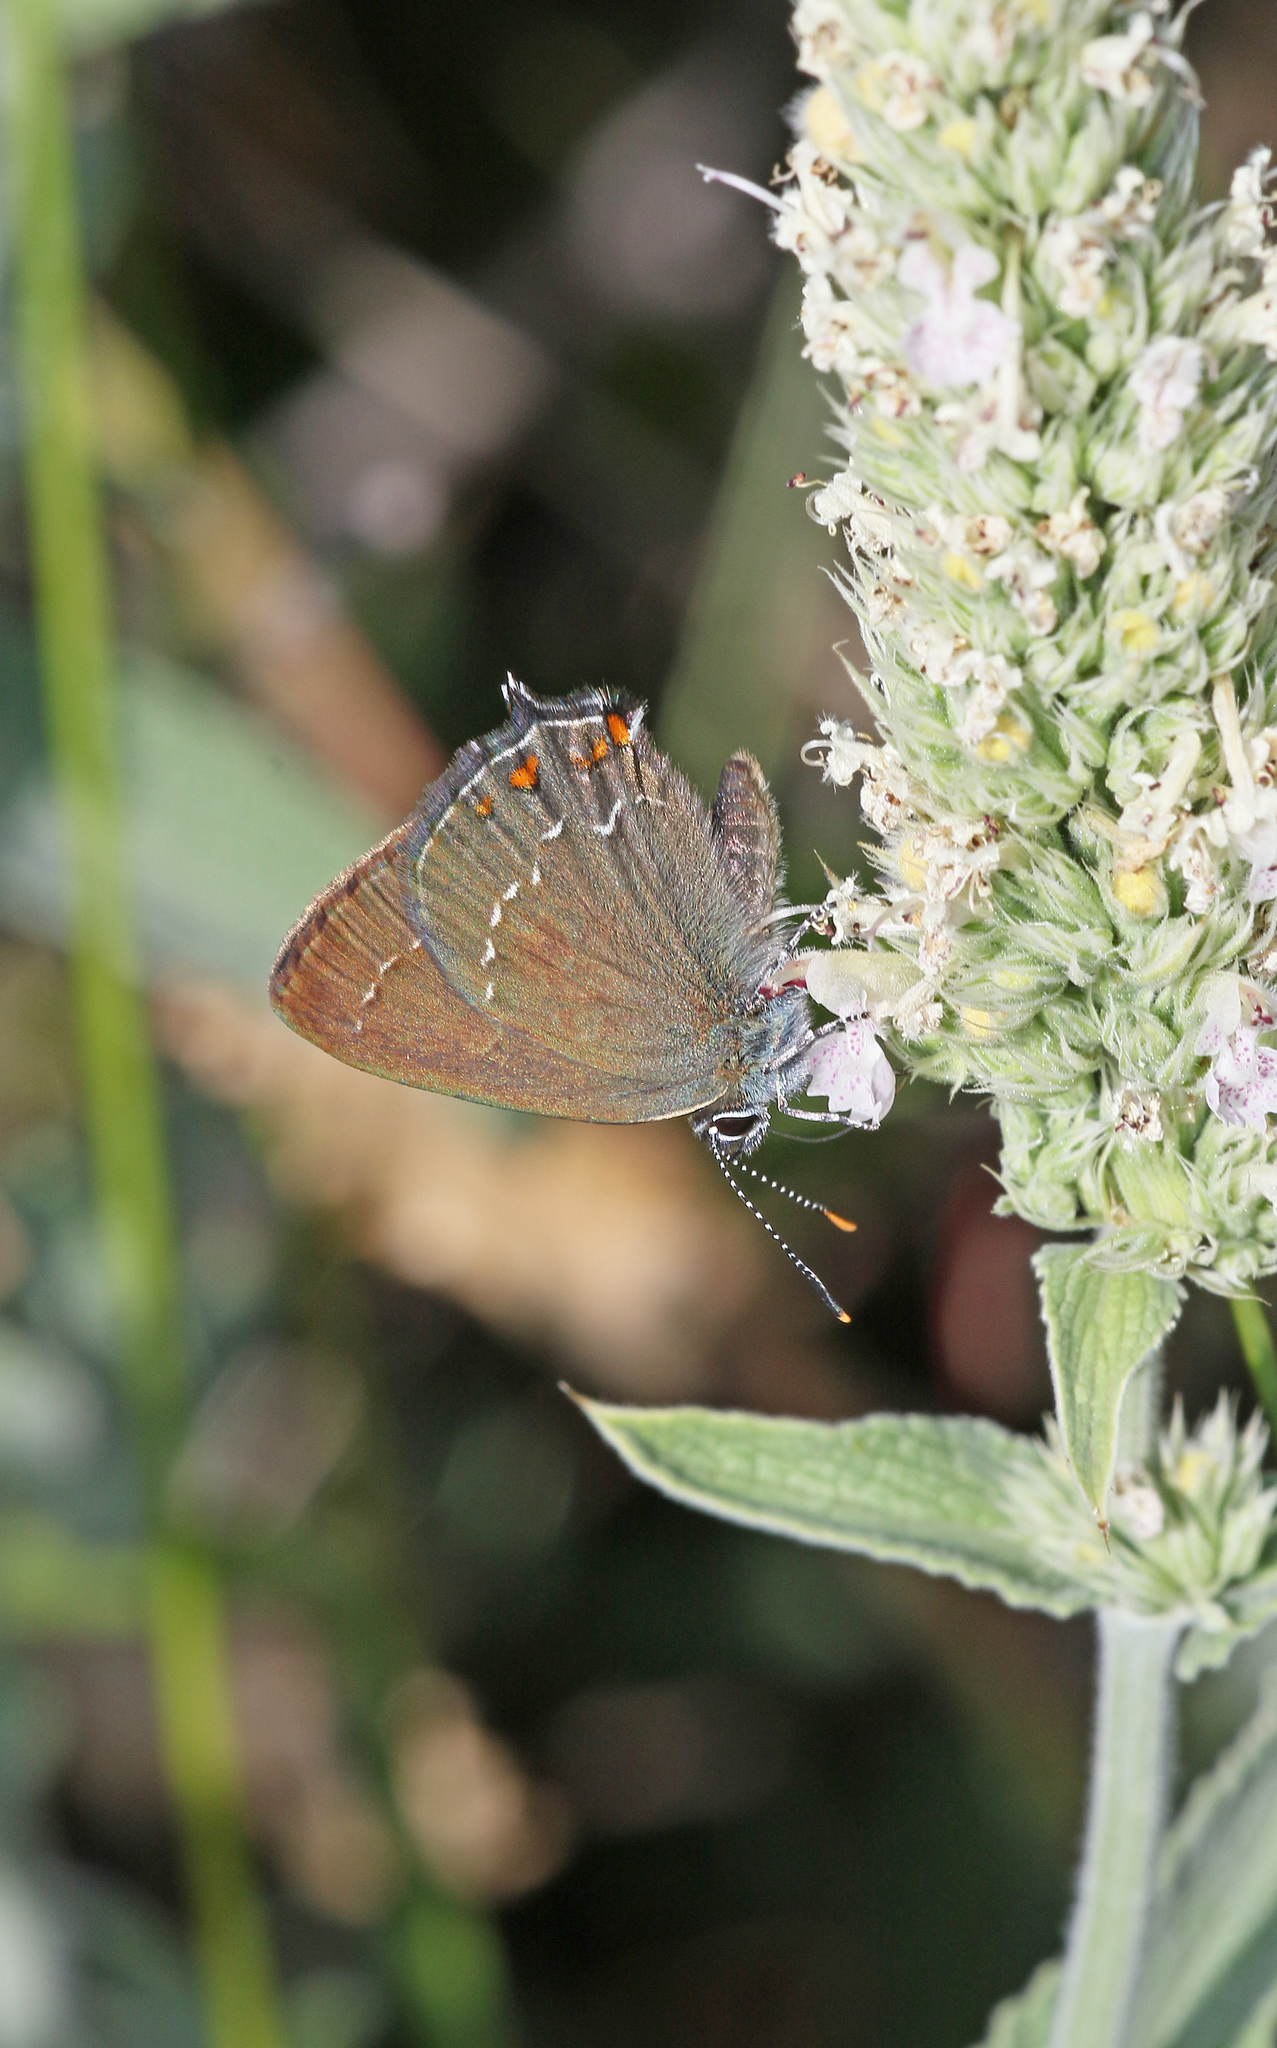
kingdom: Animalia
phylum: Arthropoda
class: Insecta
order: Lepidoptera
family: Lycaenidae
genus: Nordmannia
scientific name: Nordmannia ilicis
